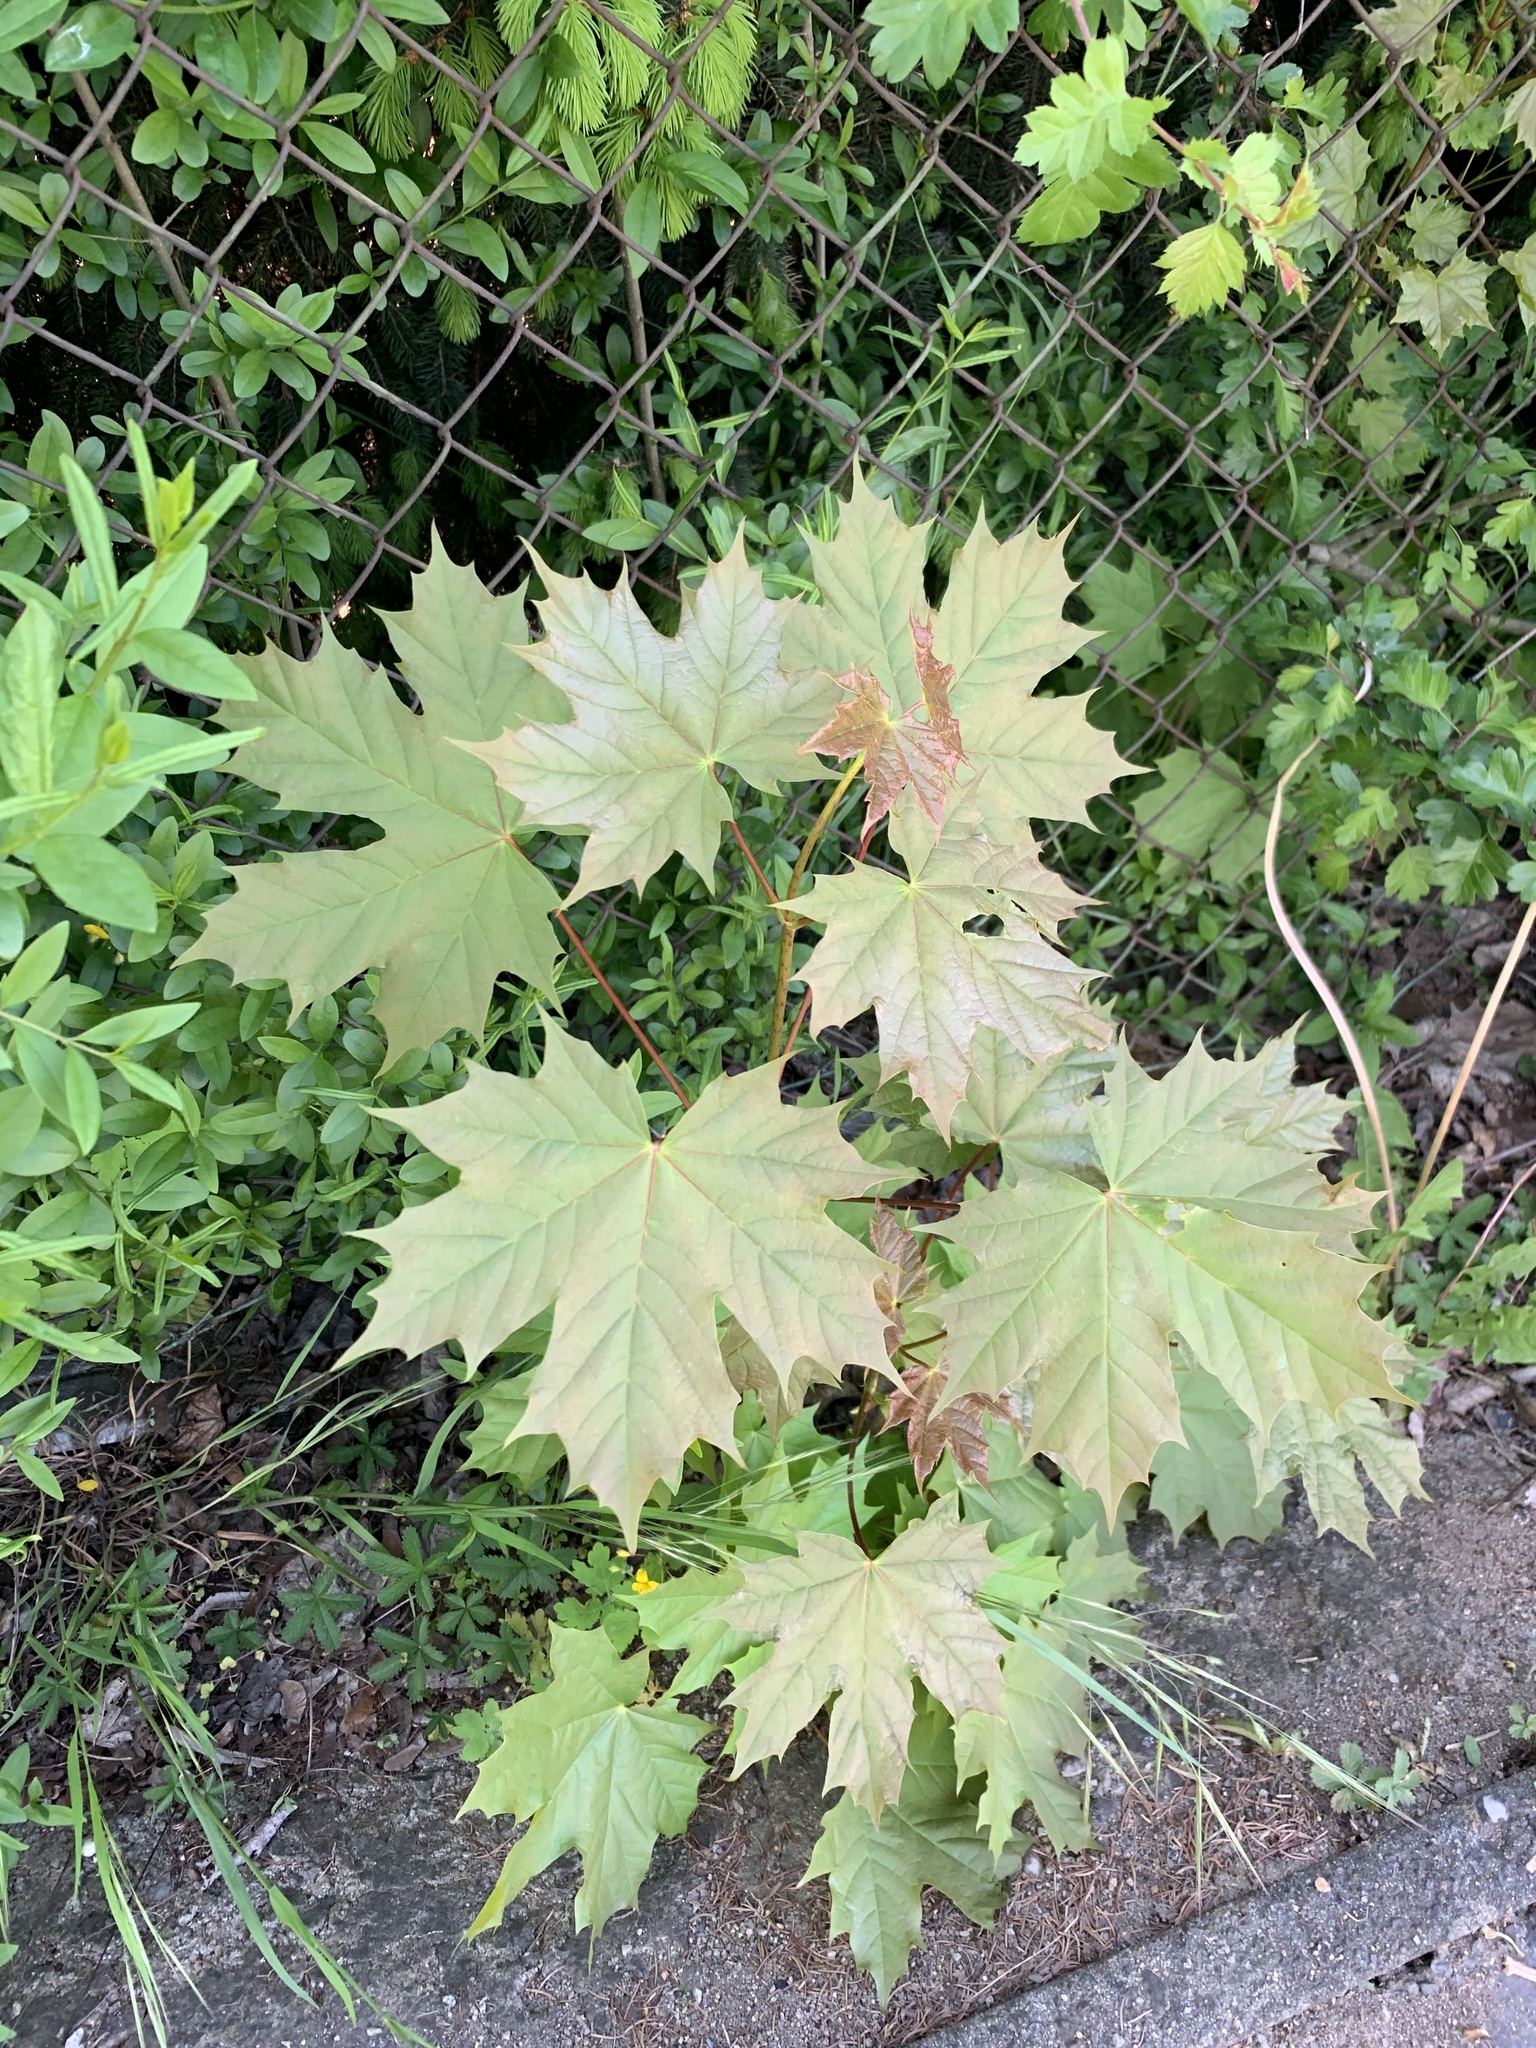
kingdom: Plantae
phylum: Tracheophyta
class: Magnoliopsida
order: Sapindales
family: Sapindaceae
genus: Acer
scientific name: Acer platanoides
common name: Norway maple
